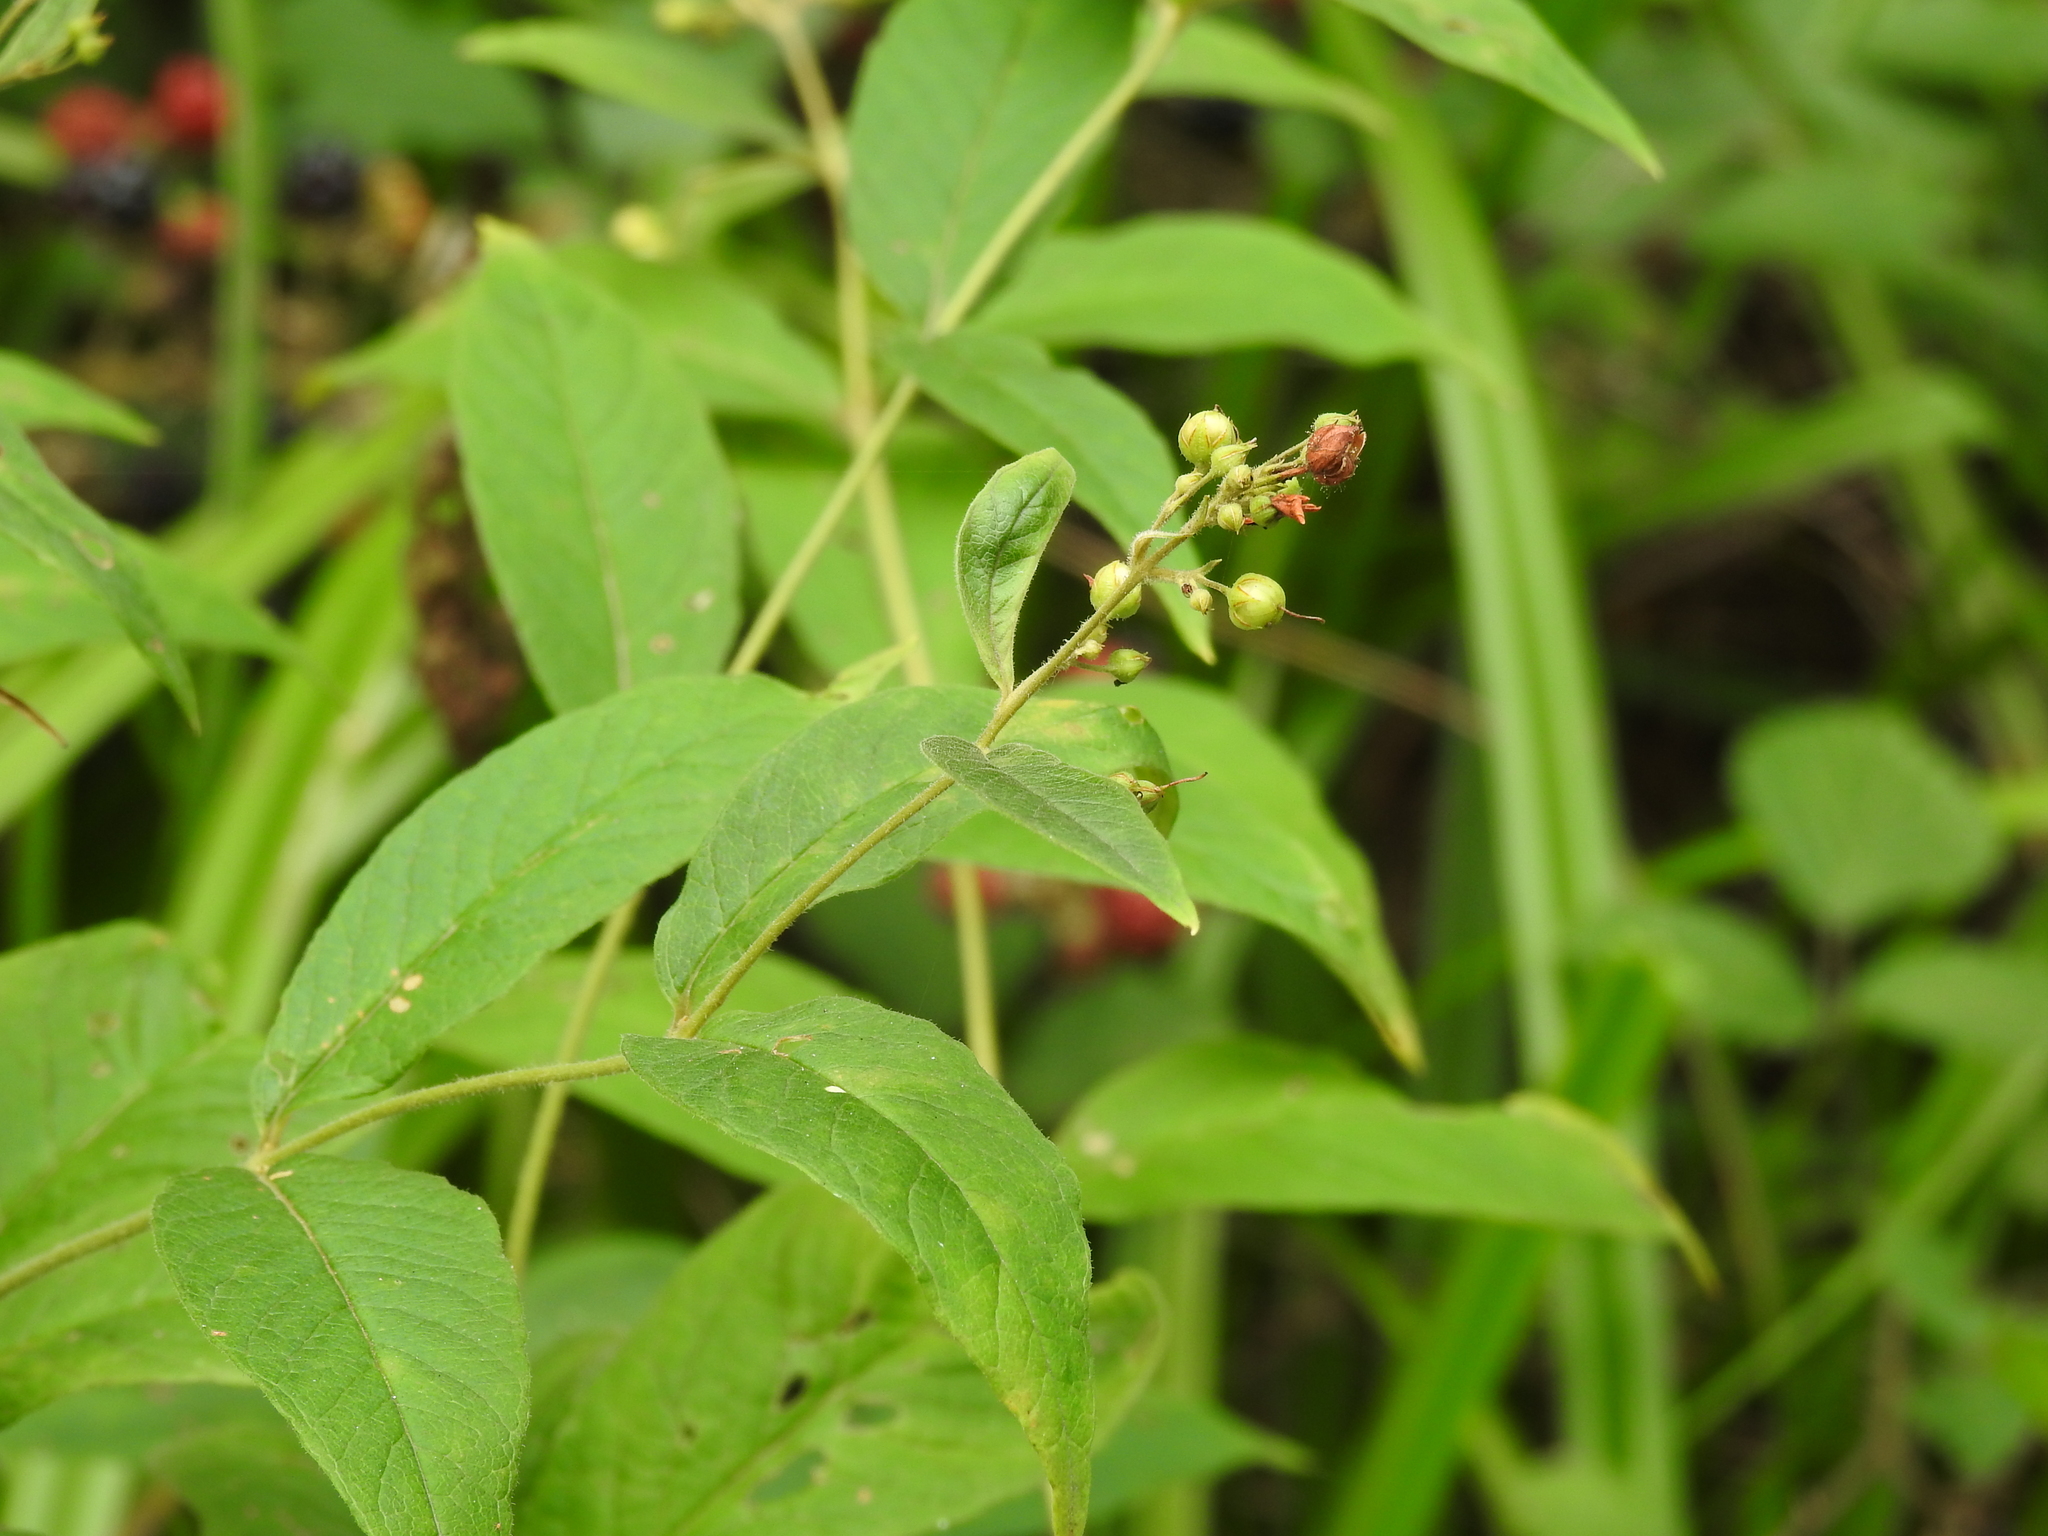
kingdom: Plantae
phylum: Tracheophyta
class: Magnoliopsida
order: Ericales
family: Primulaceae
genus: Lysimachia
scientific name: Lysimachia vulgaris
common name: Yellow loosestrife
